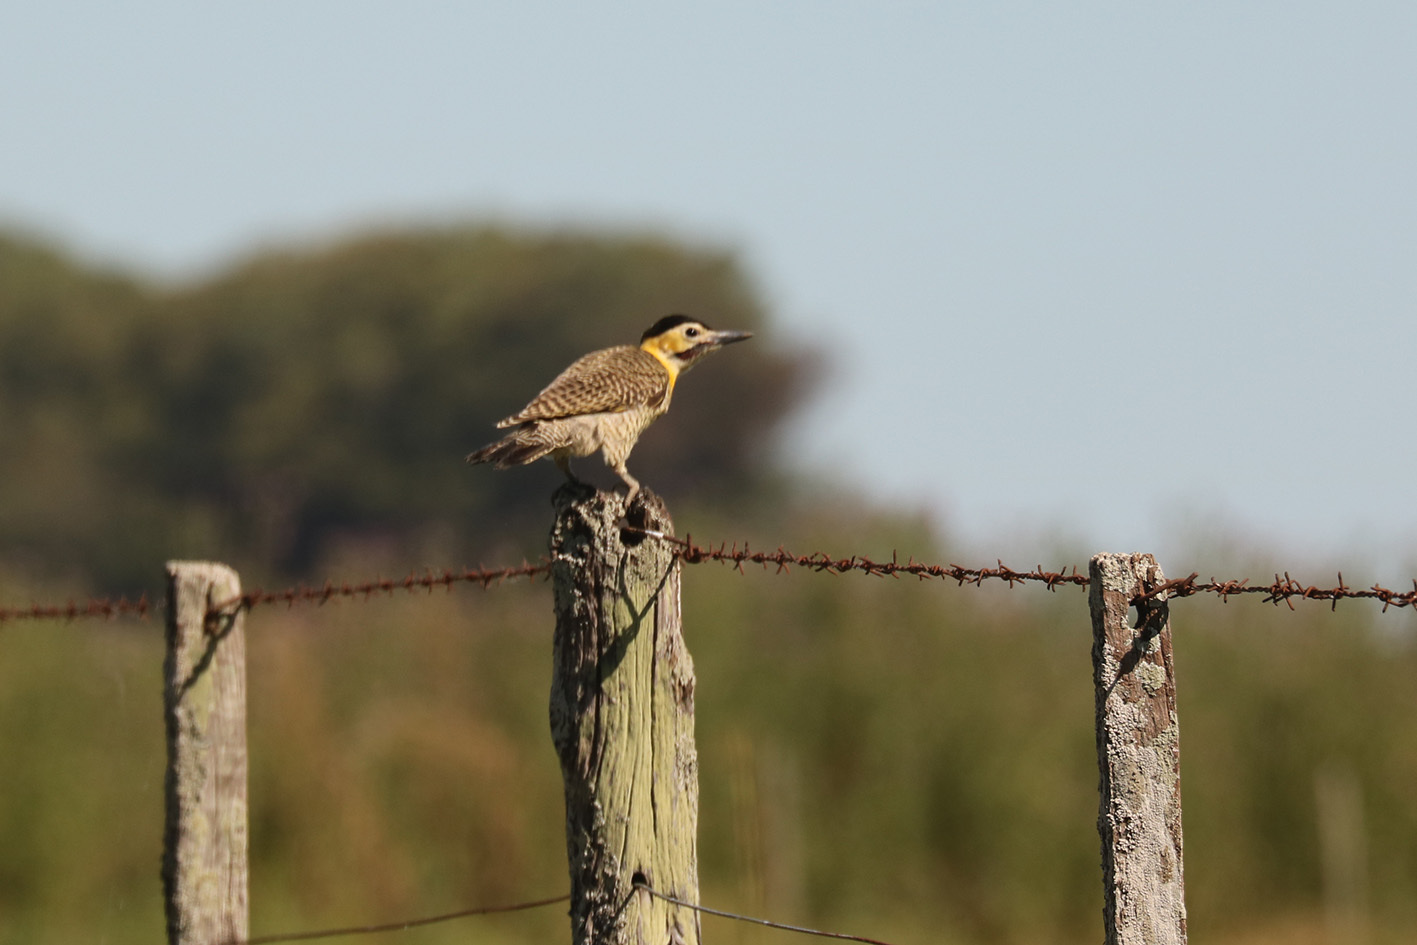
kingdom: Animalia
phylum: Chordata
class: Aves
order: Piciformes
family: Picidae
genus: Colaptes
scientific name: Colaptes campestris
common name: Campo flicker
